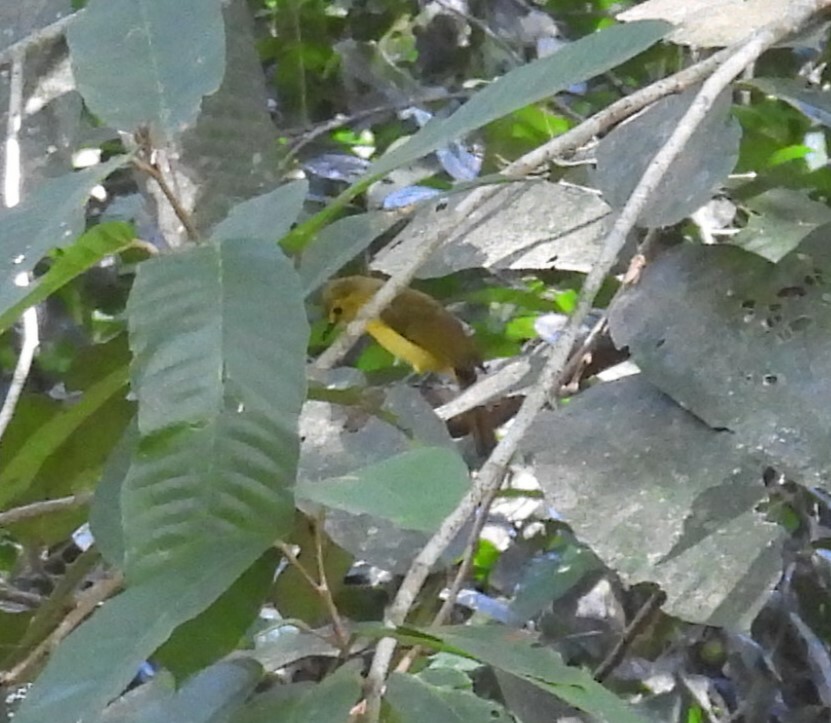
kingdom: Animalia
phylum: Chordata
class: Aves
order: Passeriformes
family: Pycnonotidae
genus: Acritillas
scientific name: Acritillas indica
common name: Yellow-browed bulbul
